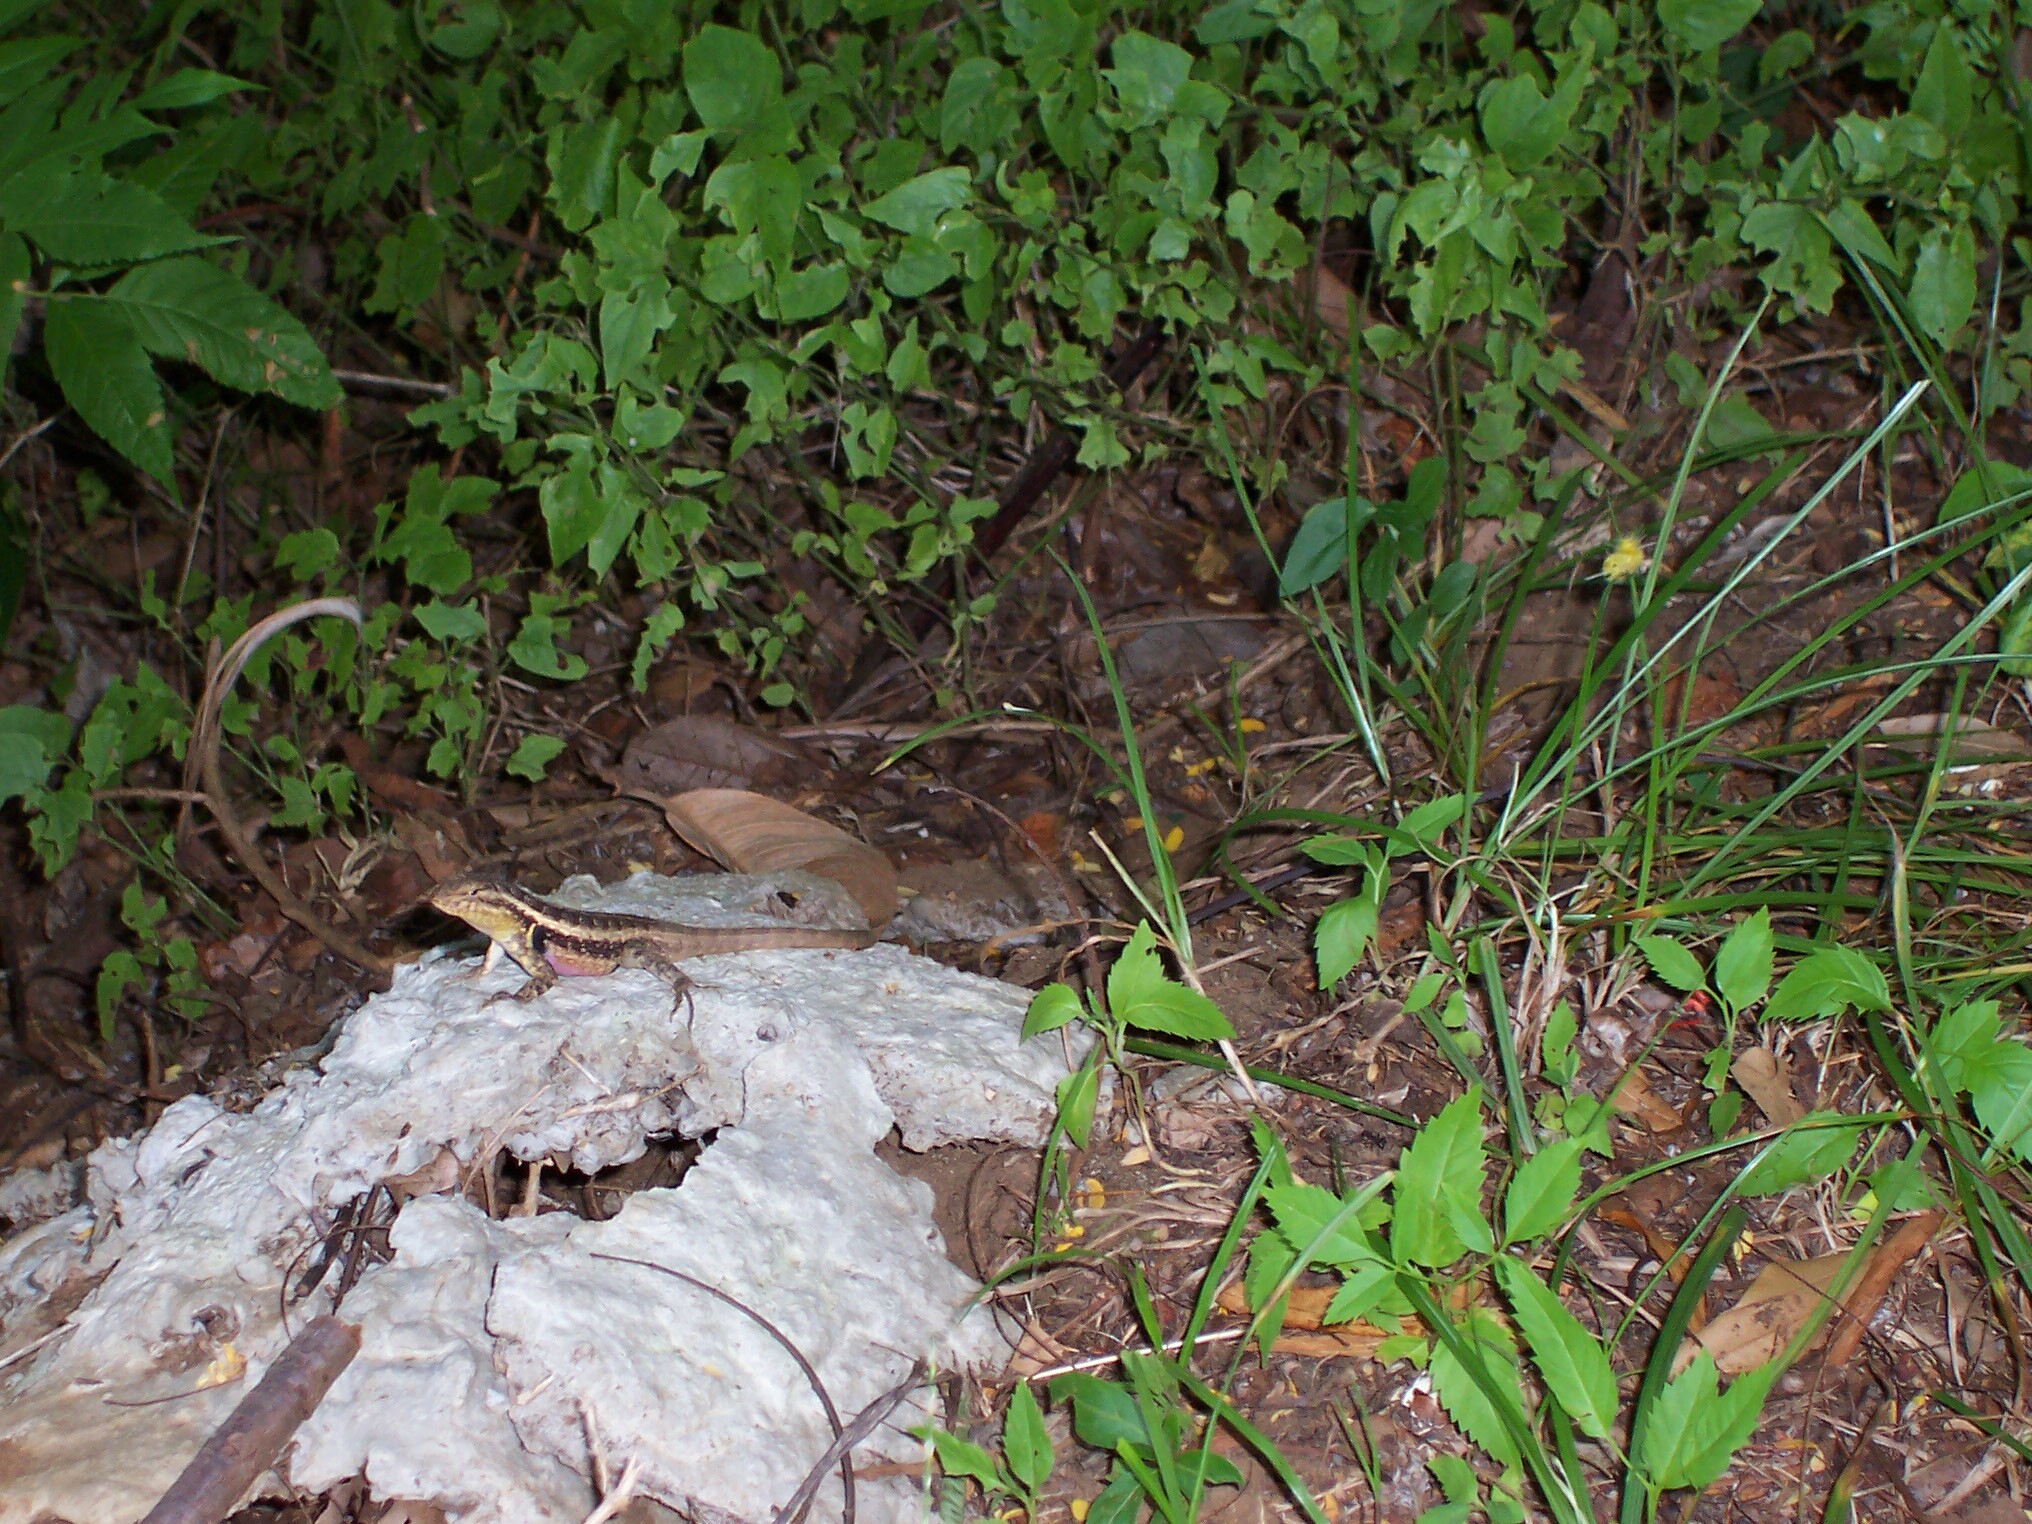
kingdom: Animalia
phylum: Chordata
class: Squamata
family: Phrynosomatidae
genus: Sceloporus
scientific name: Sceloporus variabilis
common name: Rosebelly lizard
